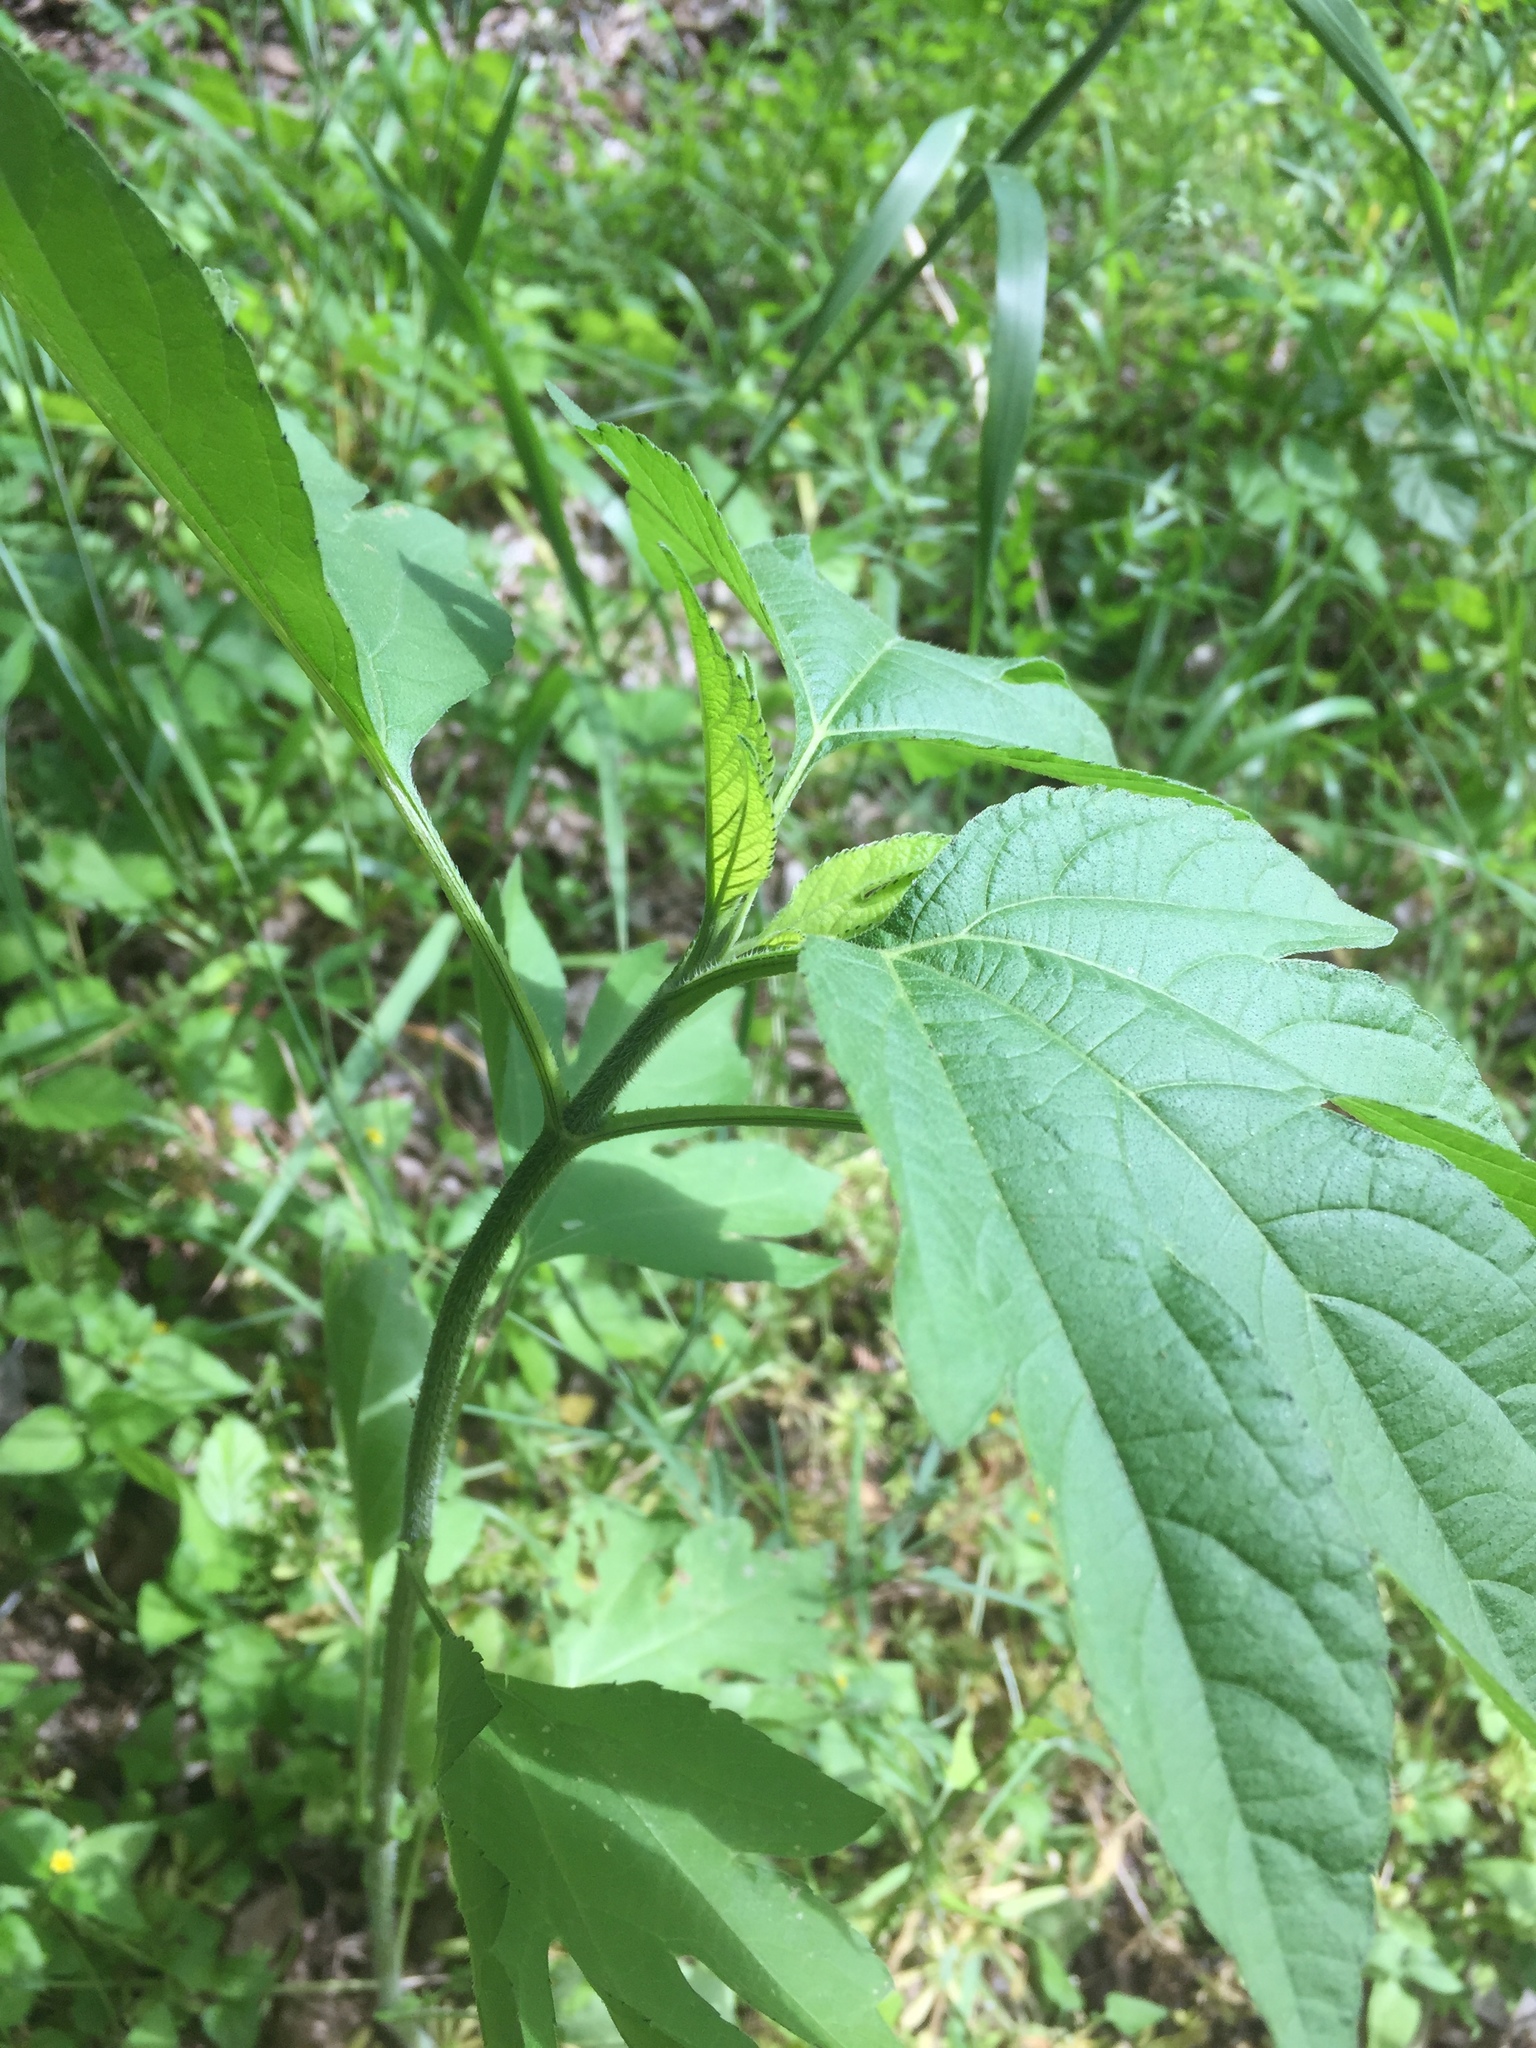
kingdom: Plantae
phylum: Tracheophyta
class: Magnoliopsida
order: Asterales
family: Asteraceae
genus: Ambrosia
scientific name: Ambrosia trifida
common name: Giant ragweed
